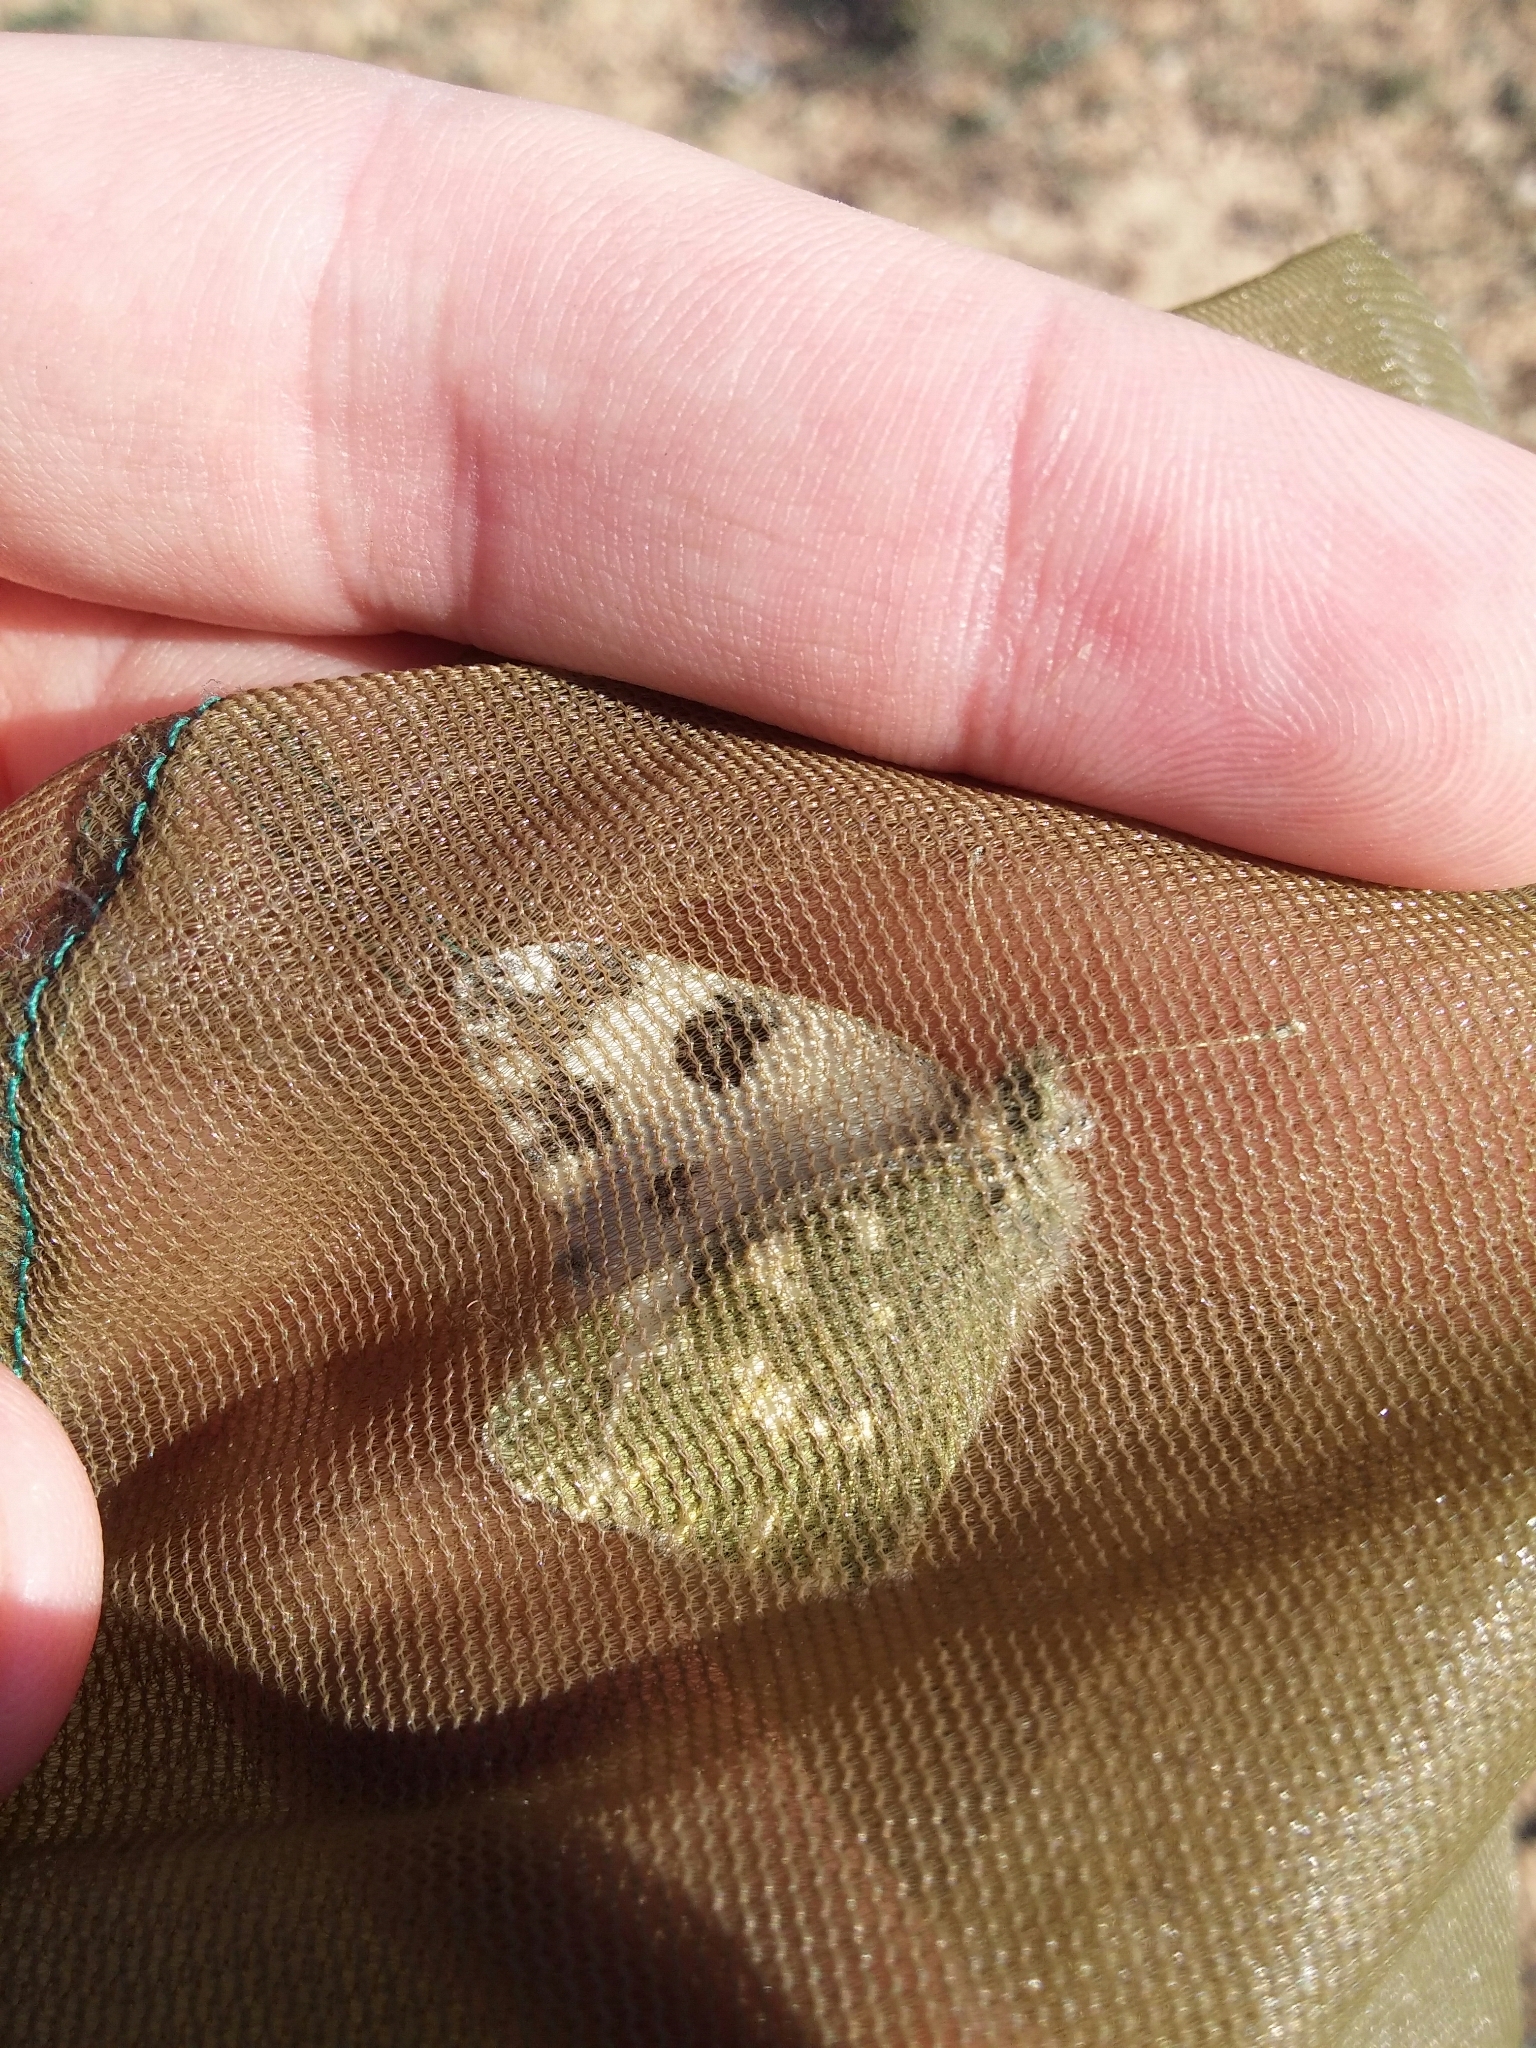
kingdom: Animalia
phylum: Arthropoda
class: Insecta
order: Lepidoptera
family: Pieridae
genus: Pontia
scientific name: Pontia daplidice
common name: Bath white
